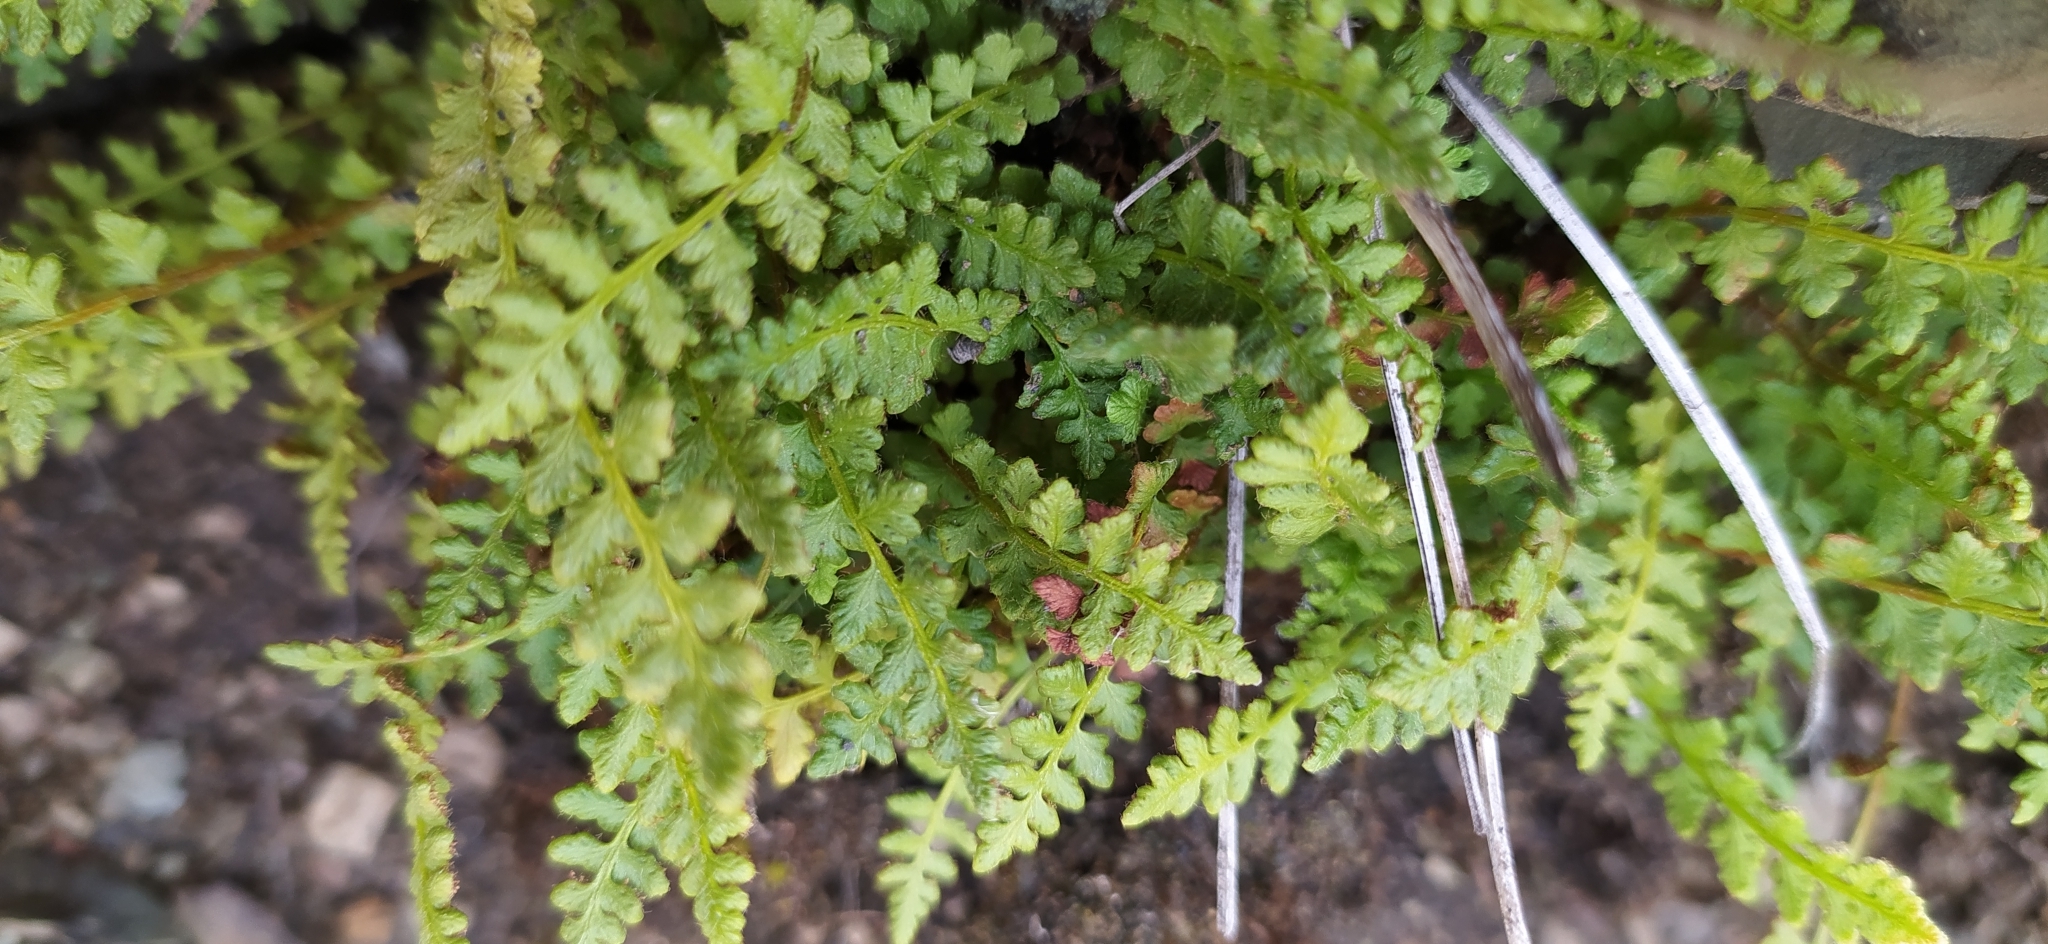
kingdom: Plantae
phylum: Tracheophyta
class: Polypodiopsida
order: Polypodiales
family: Woodsiaceae
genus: Woodsia
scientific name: Woodsia alpina
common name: Alpine woodsia
